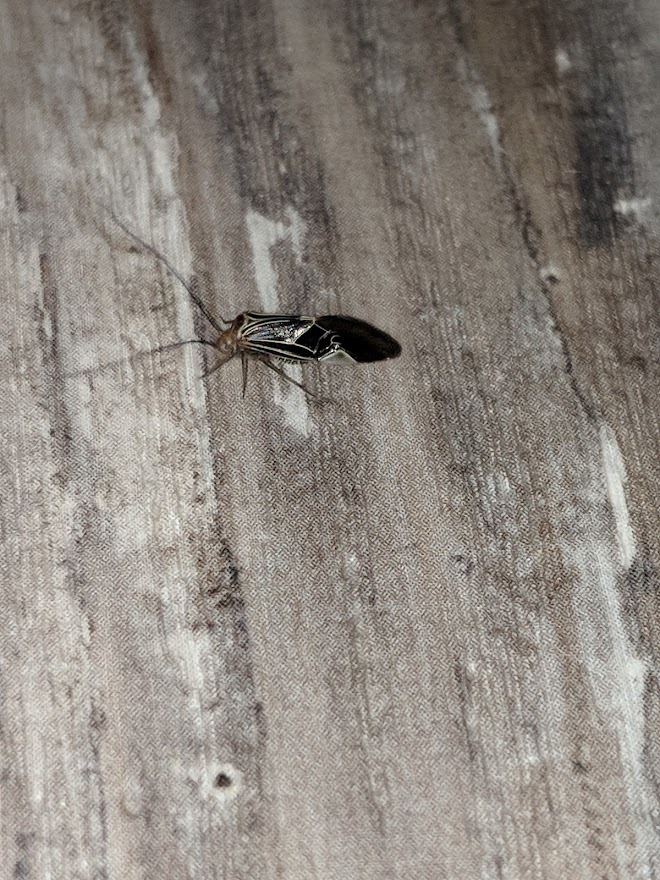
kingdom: Animalia
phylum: Arthropoda
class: Insecta
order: Psocodea
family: Psocidae
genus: Cerastipsocus
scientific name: Cerastipsocus venosus
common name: Tree cattle
